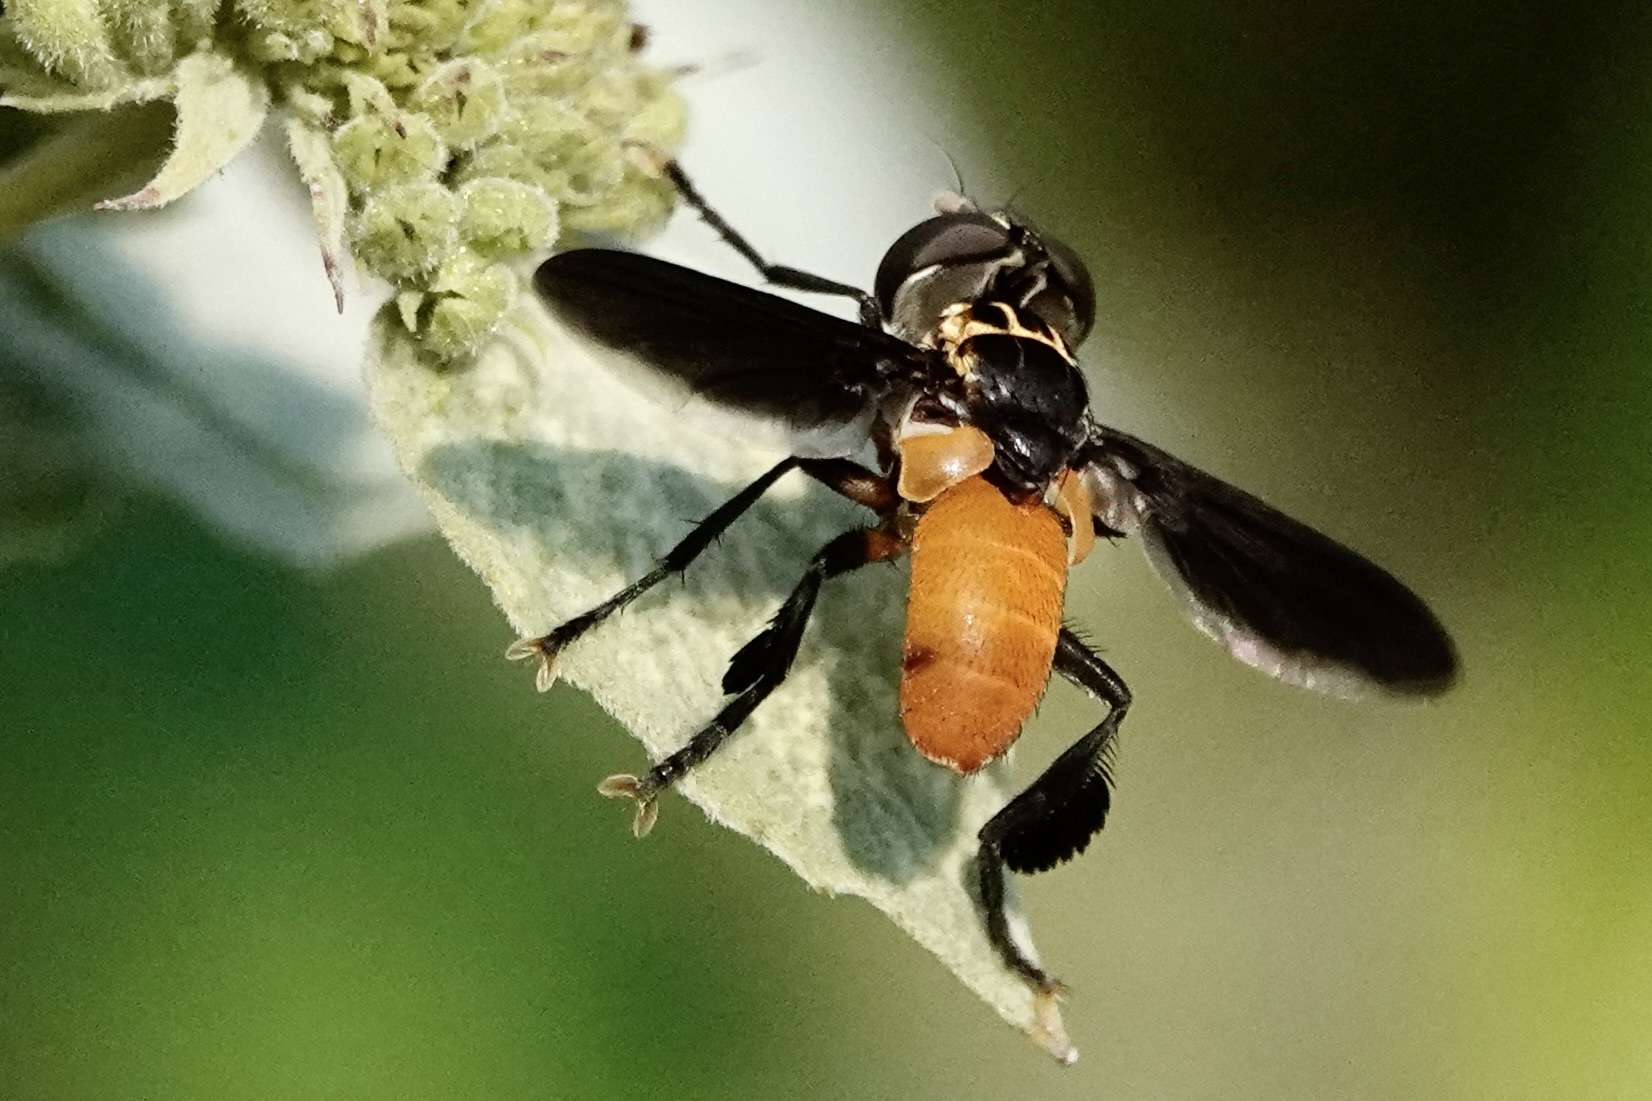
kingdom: Animalia
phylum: Arthropoda
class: Insecta
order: Diptera
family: Tachinidae
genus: Trichopoda
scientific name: Trichopoda pennipes
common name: Tachinid fly
